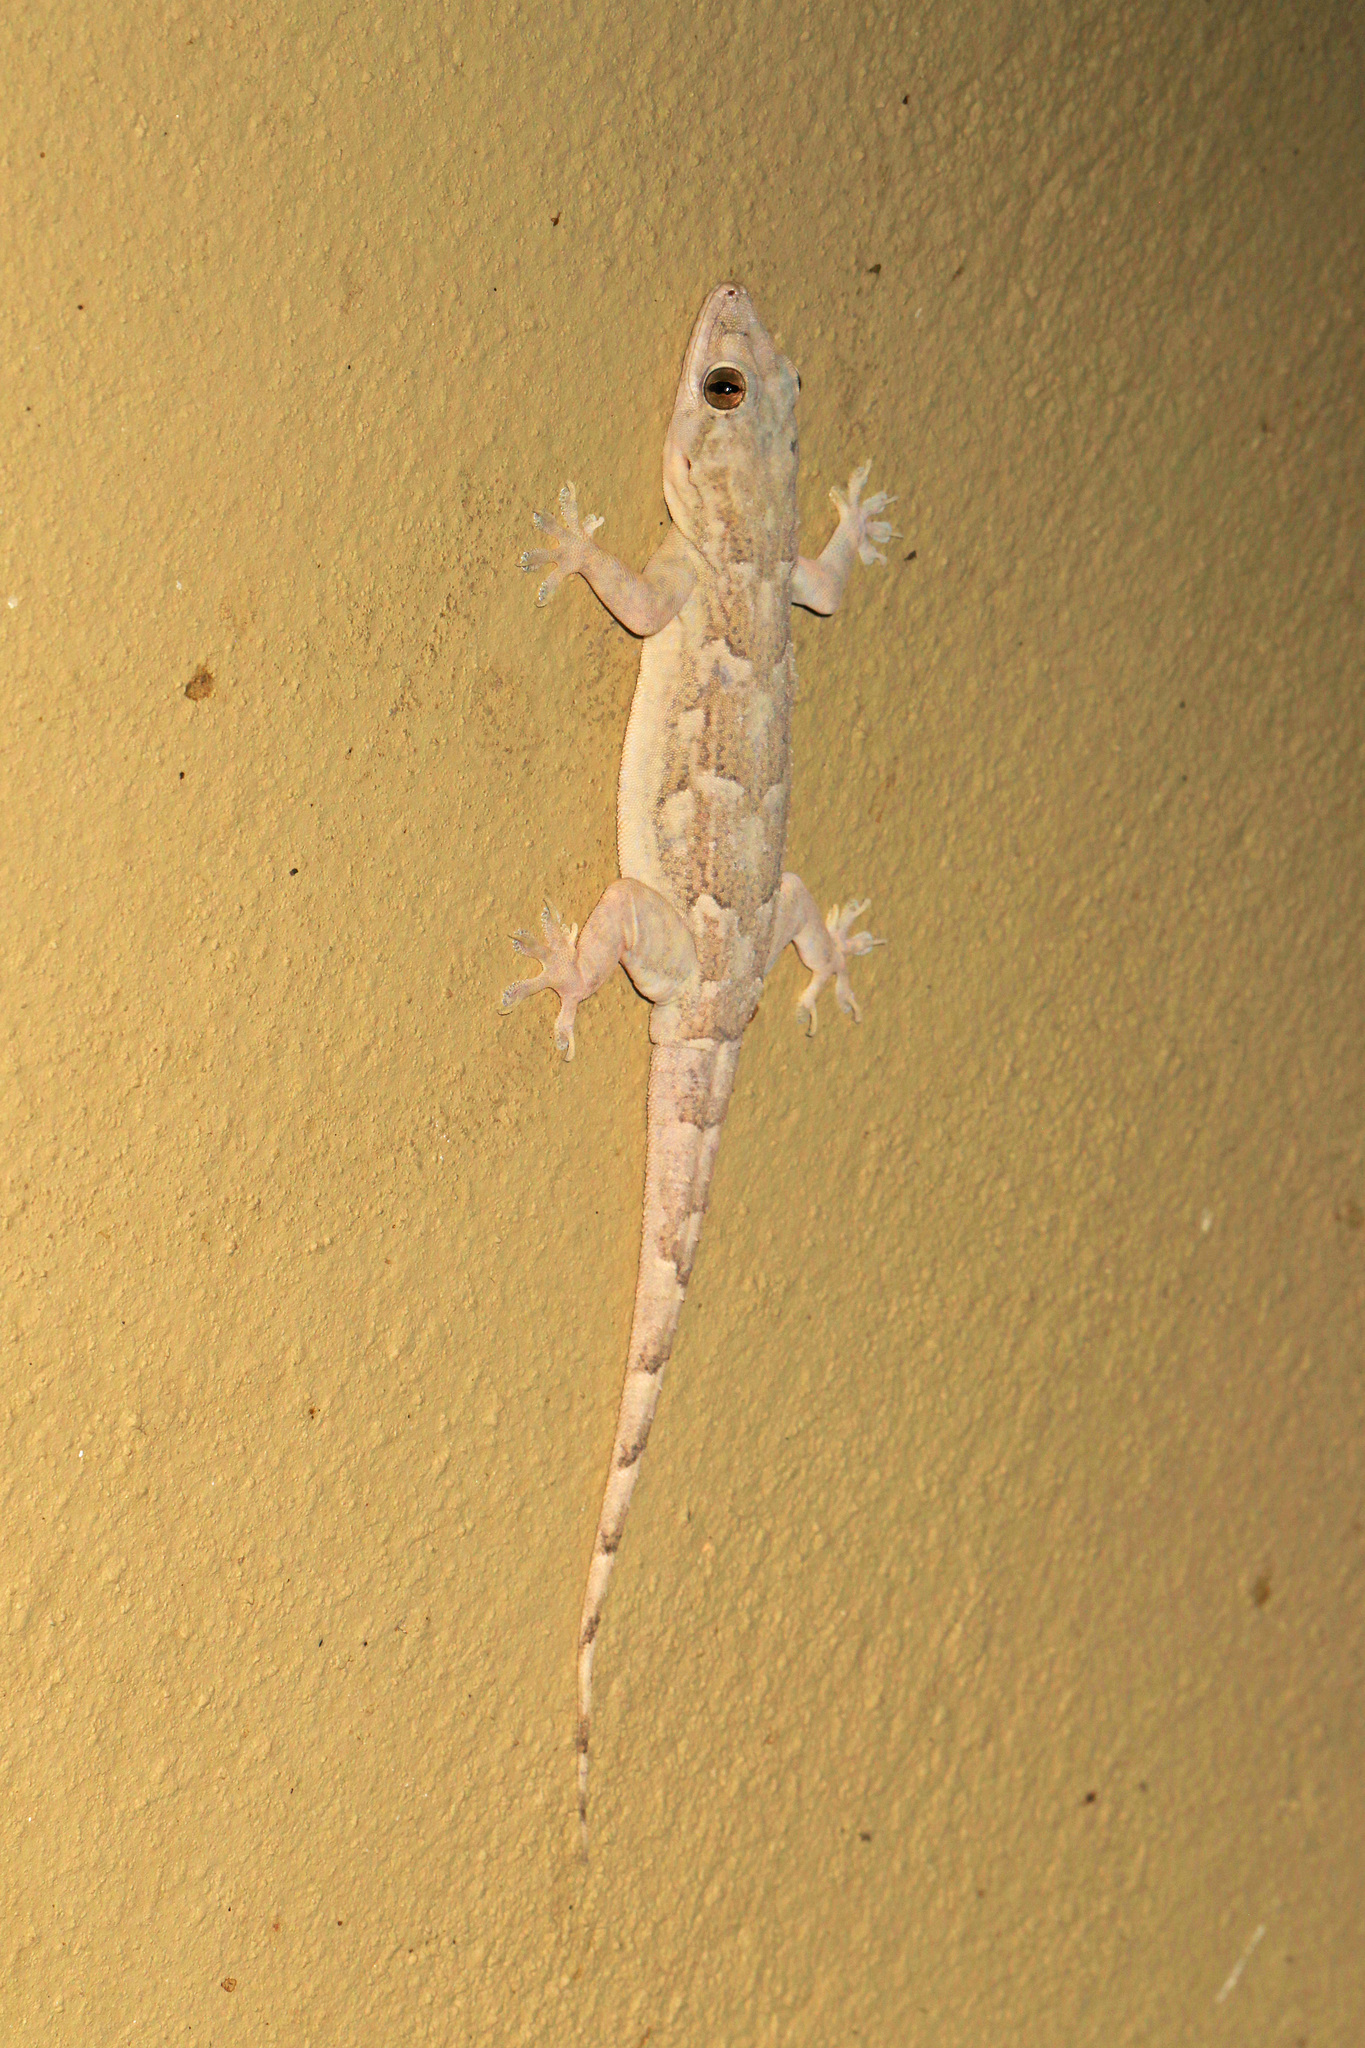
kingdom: Animalia
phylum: Chordata
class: Squamata
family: Gekkonidae
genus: Hemidactylus
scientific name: Hemidactylus platycephalus
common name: Baobab gecko
